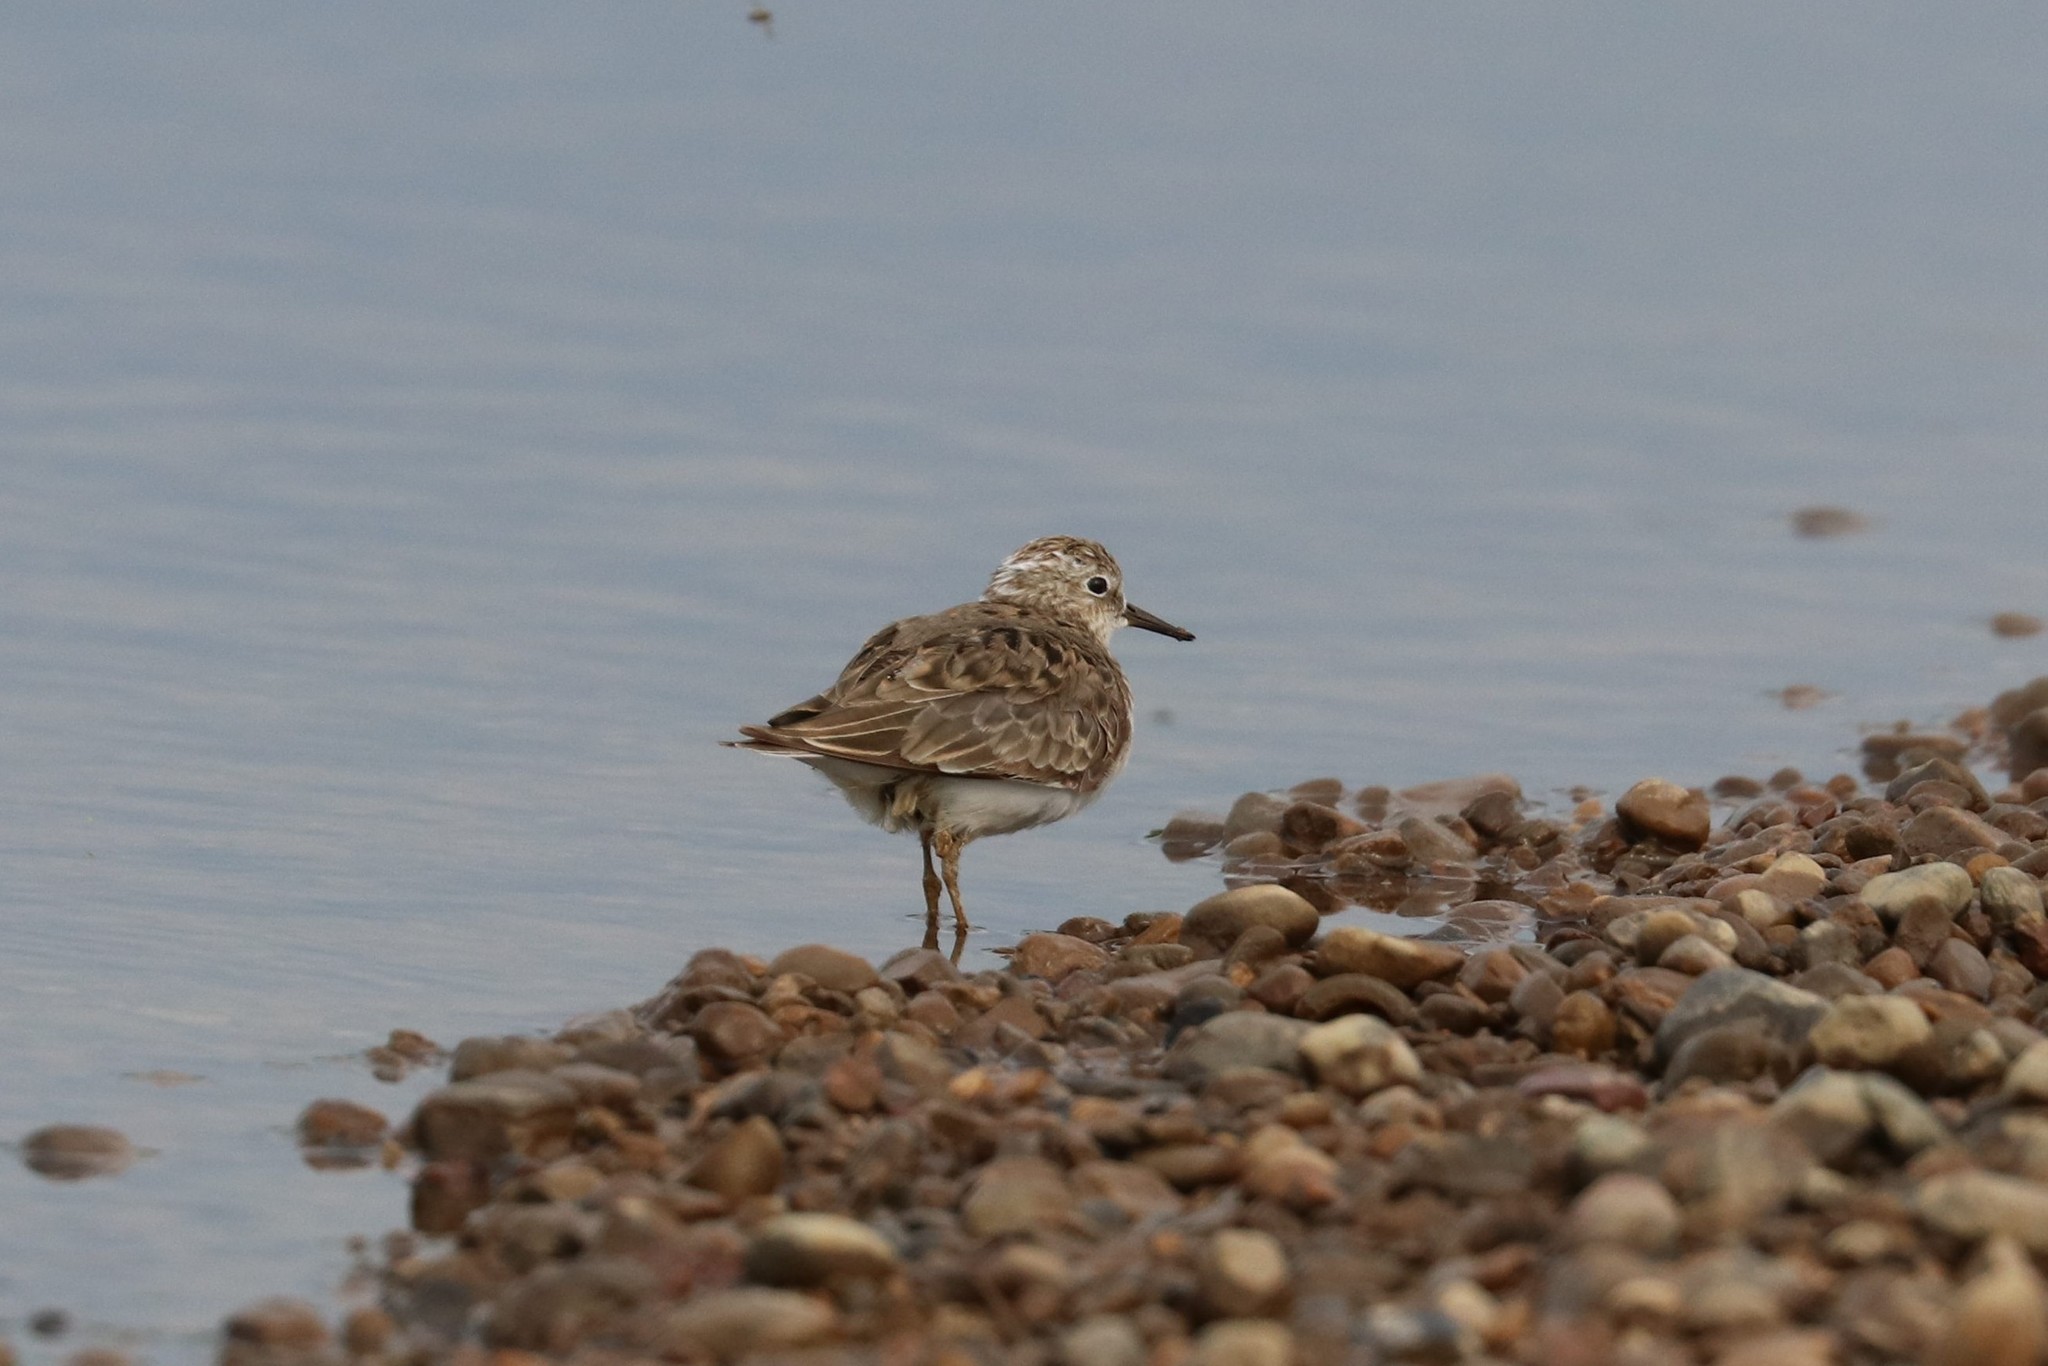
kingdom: Animalia
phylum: Chordata
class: Aves
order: Charadriiformes
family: Scolopacidae
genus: Calidris
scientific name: Calidris temminckii
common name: Temminck's stint
